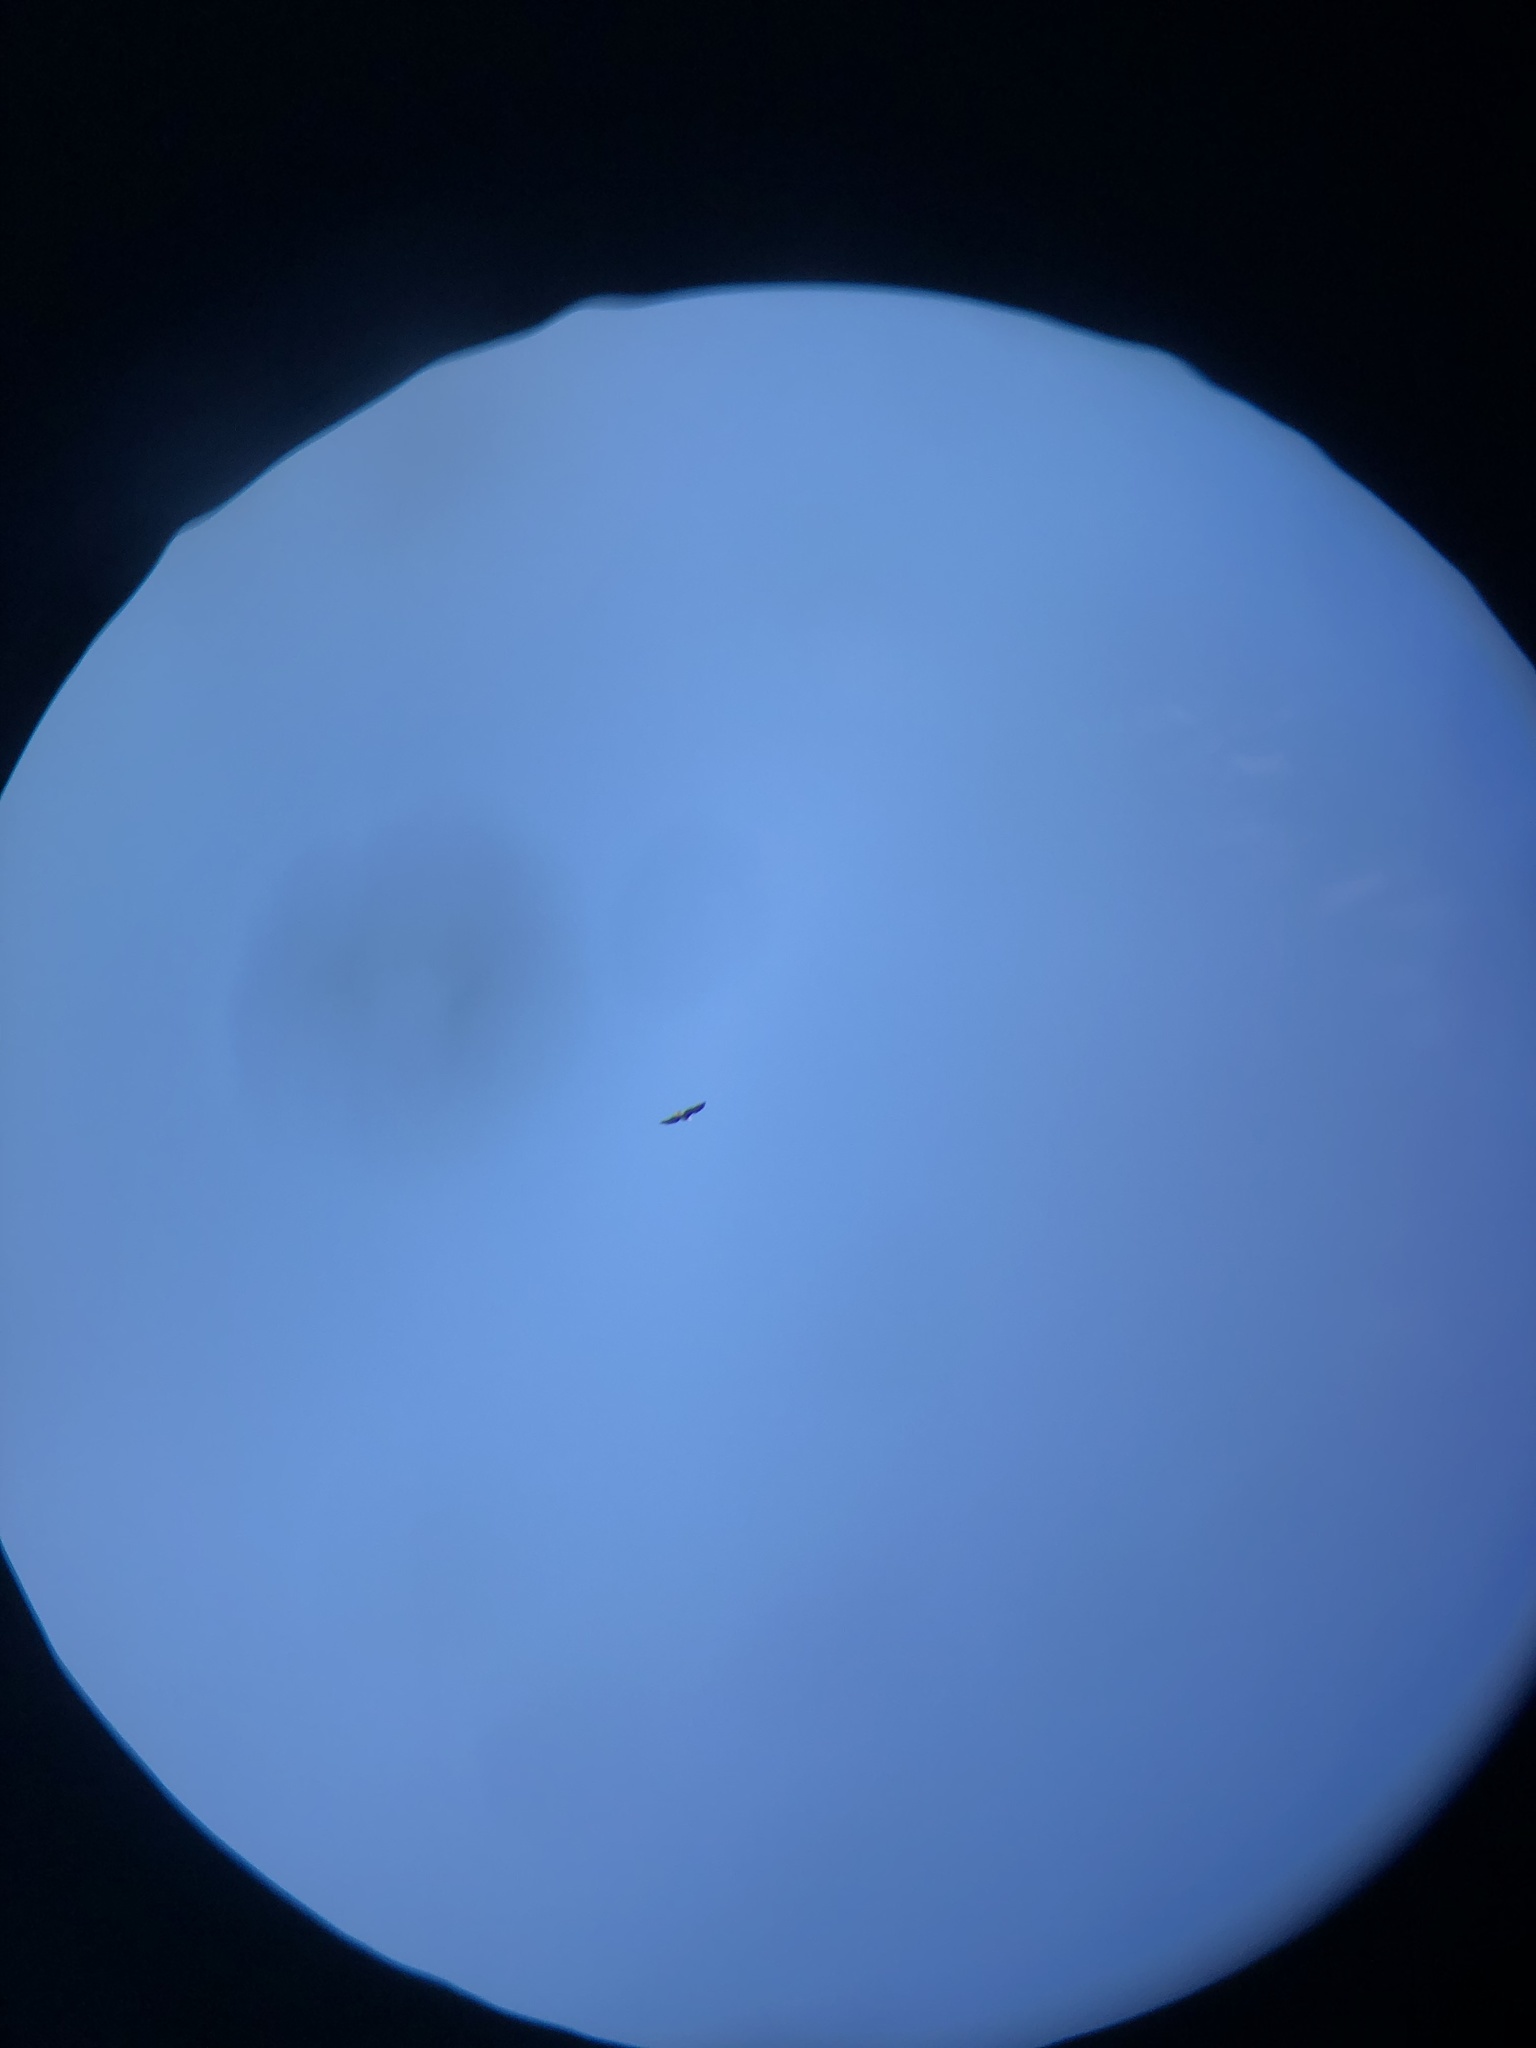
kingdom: Animalia
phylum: Chordata
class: Aves
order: Accipitriformes
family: Accipitridae
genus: Haliaeetus
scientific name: Haliaeetus leucocephalus
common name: Bald eagle
